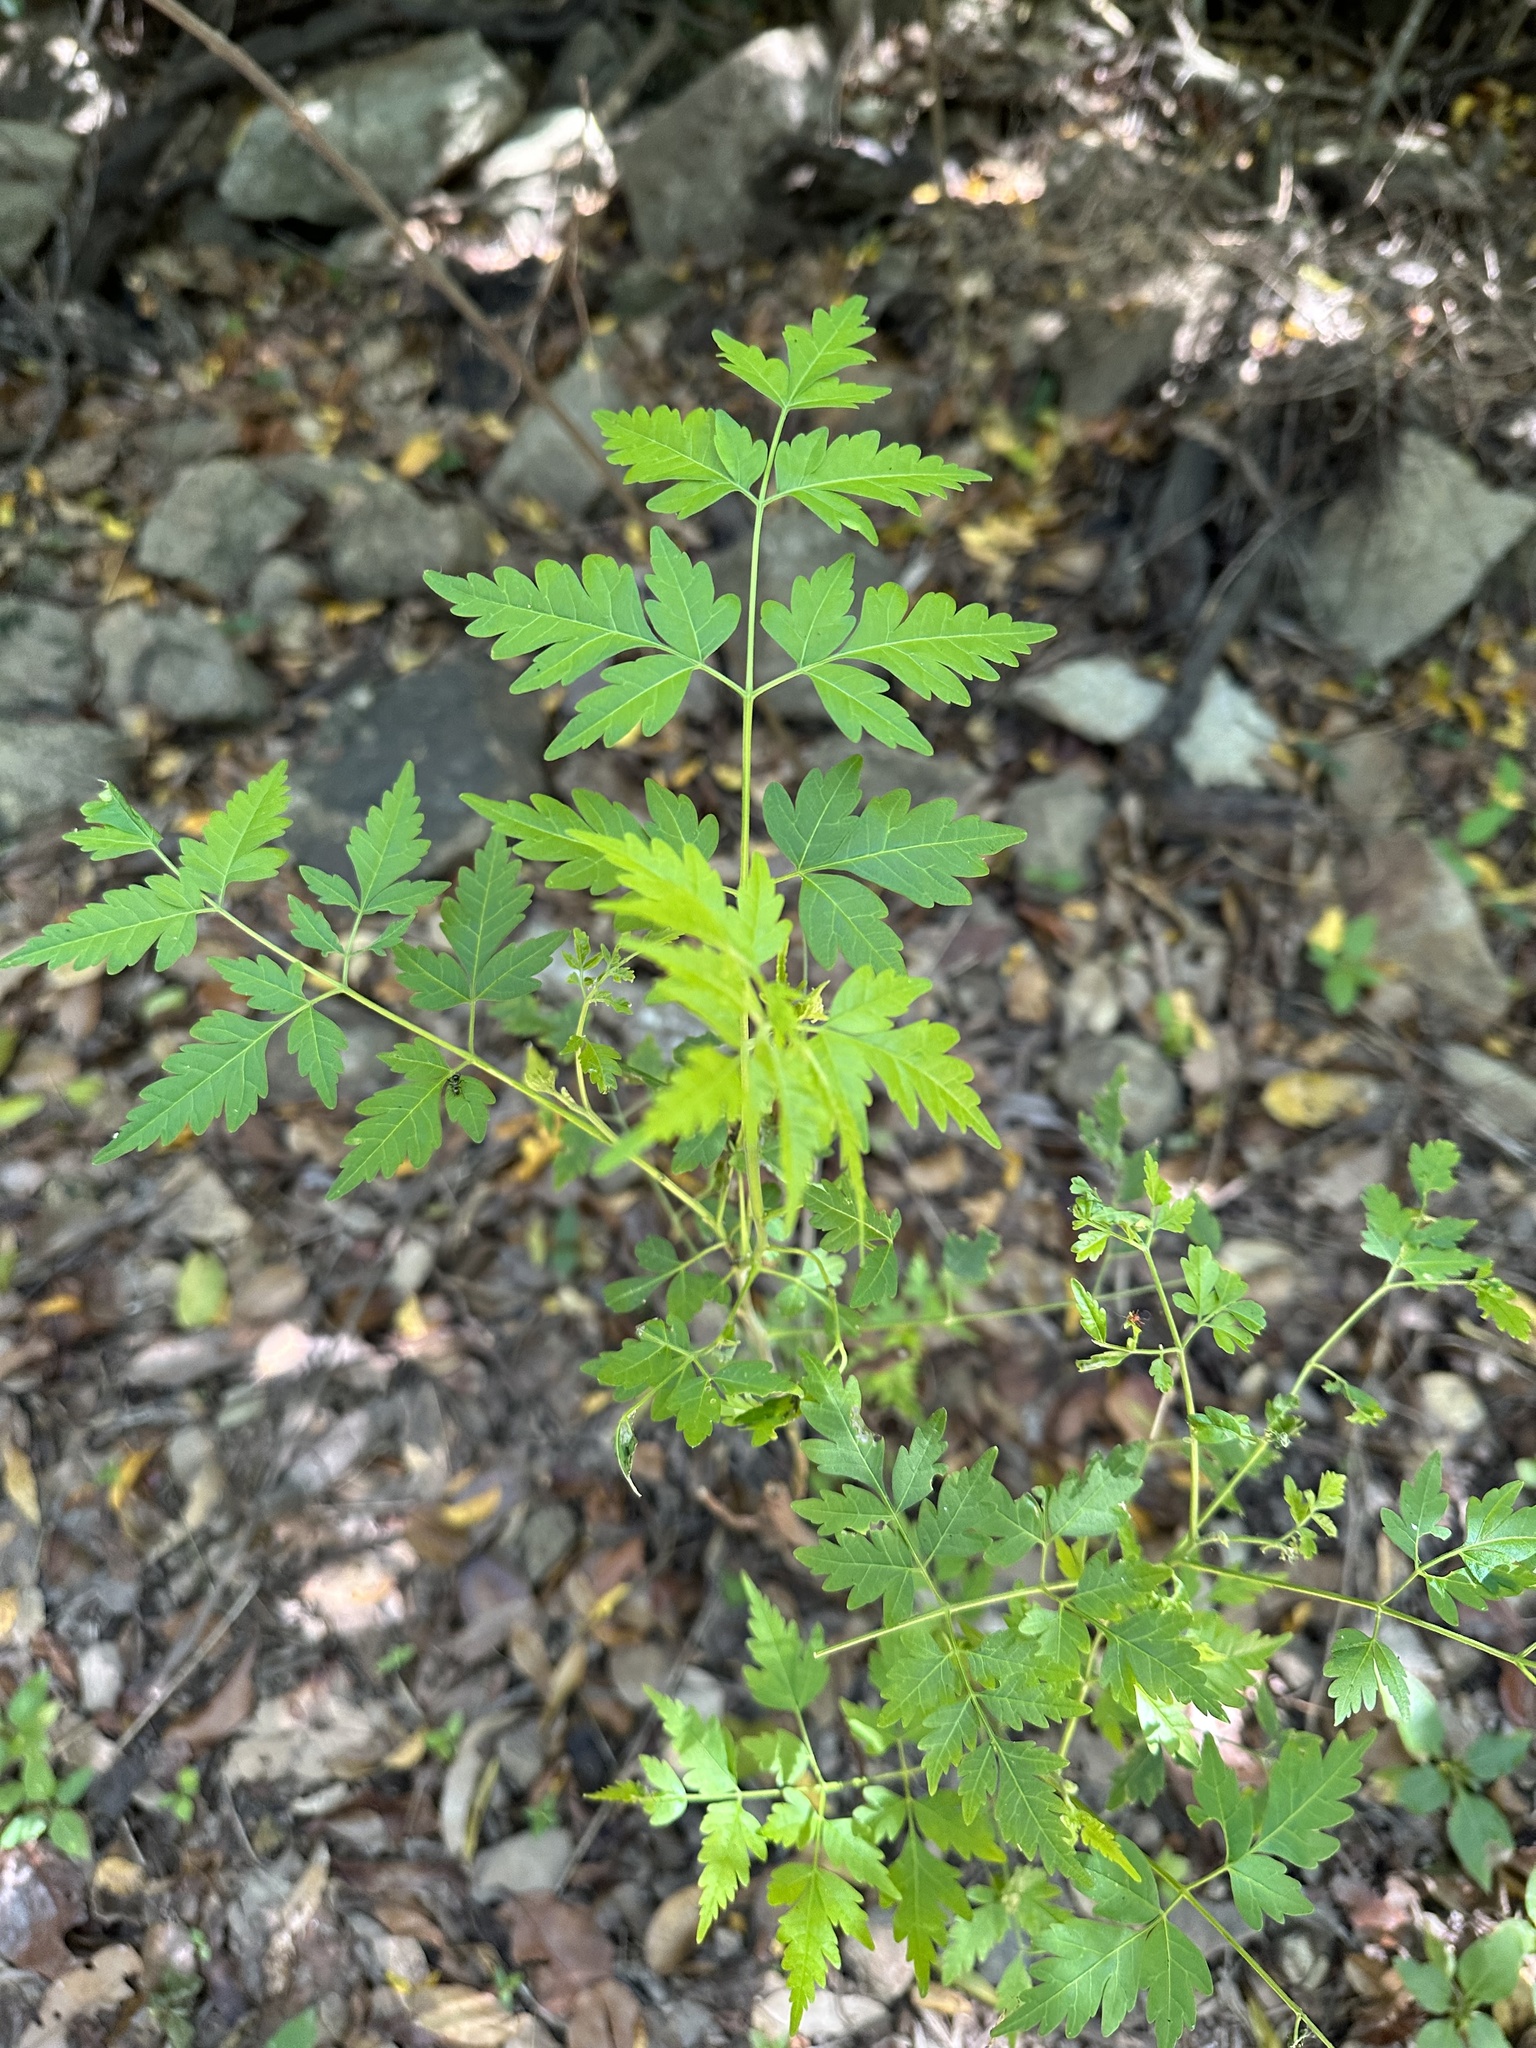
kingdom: Plantae
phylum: Tracheophyta
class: Magnoliopsida
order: Sapindales
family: Meliaceae
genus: Melia
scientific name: Melia azedarach
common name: Chinaberrytree
